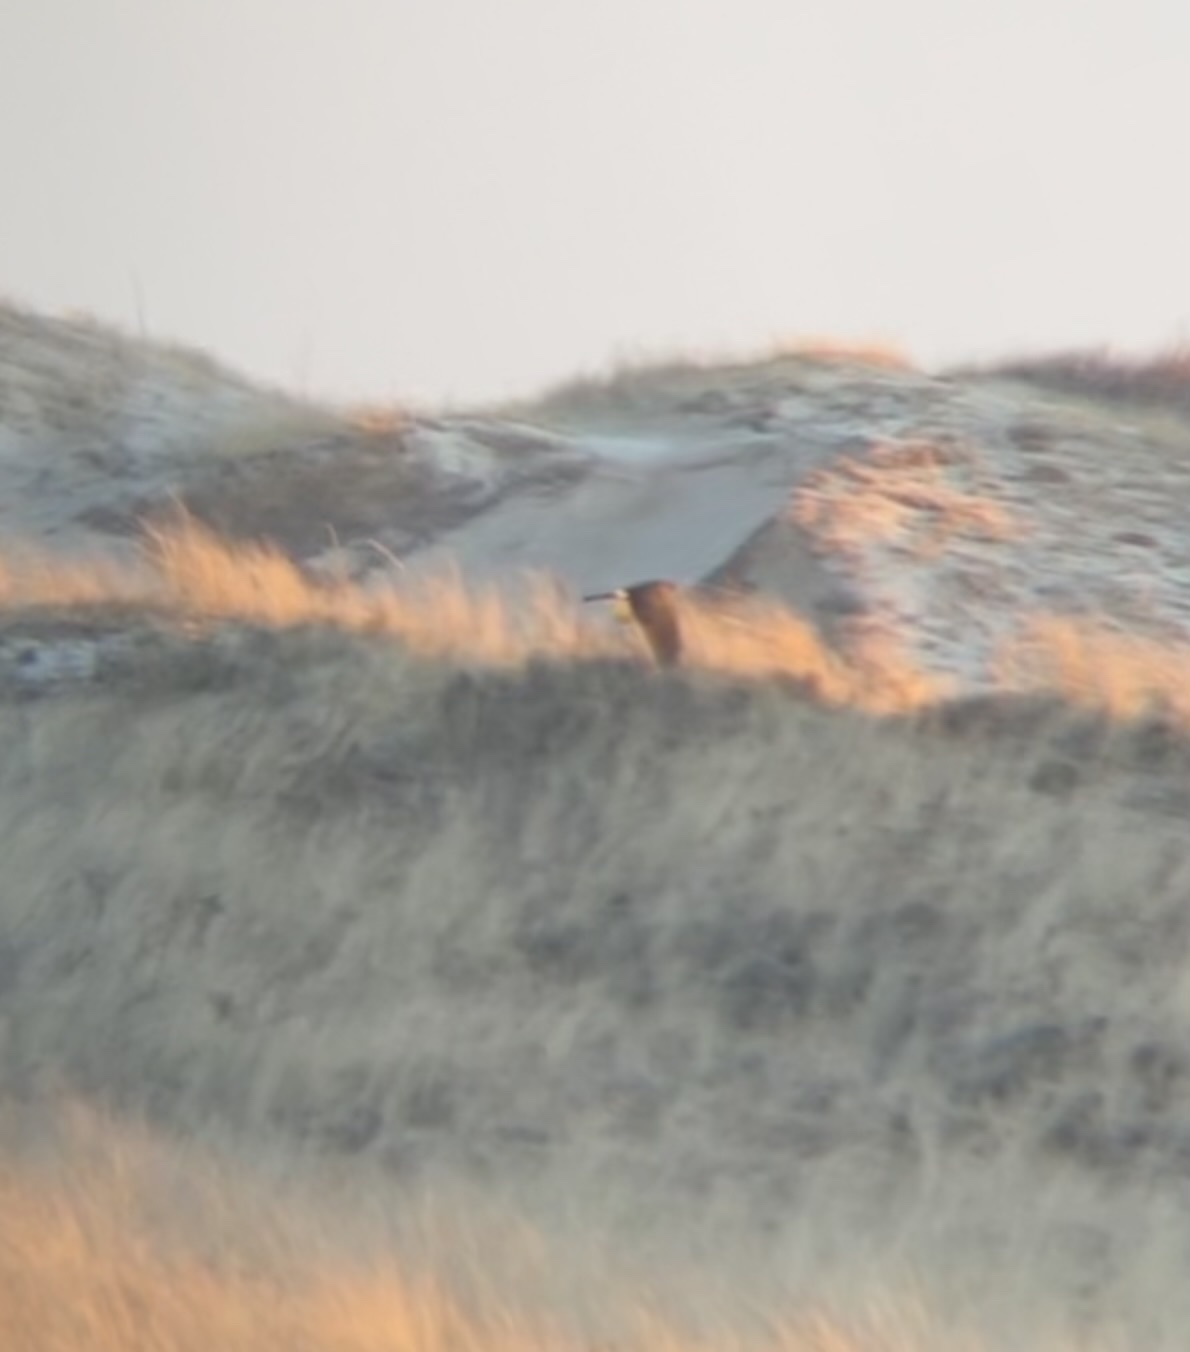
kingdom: Animalia
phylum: Chordata
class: Aves
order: Accipitriformes
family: Accipitridae
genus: Circus
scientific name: Circus cyaneus
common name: Hen harrier
